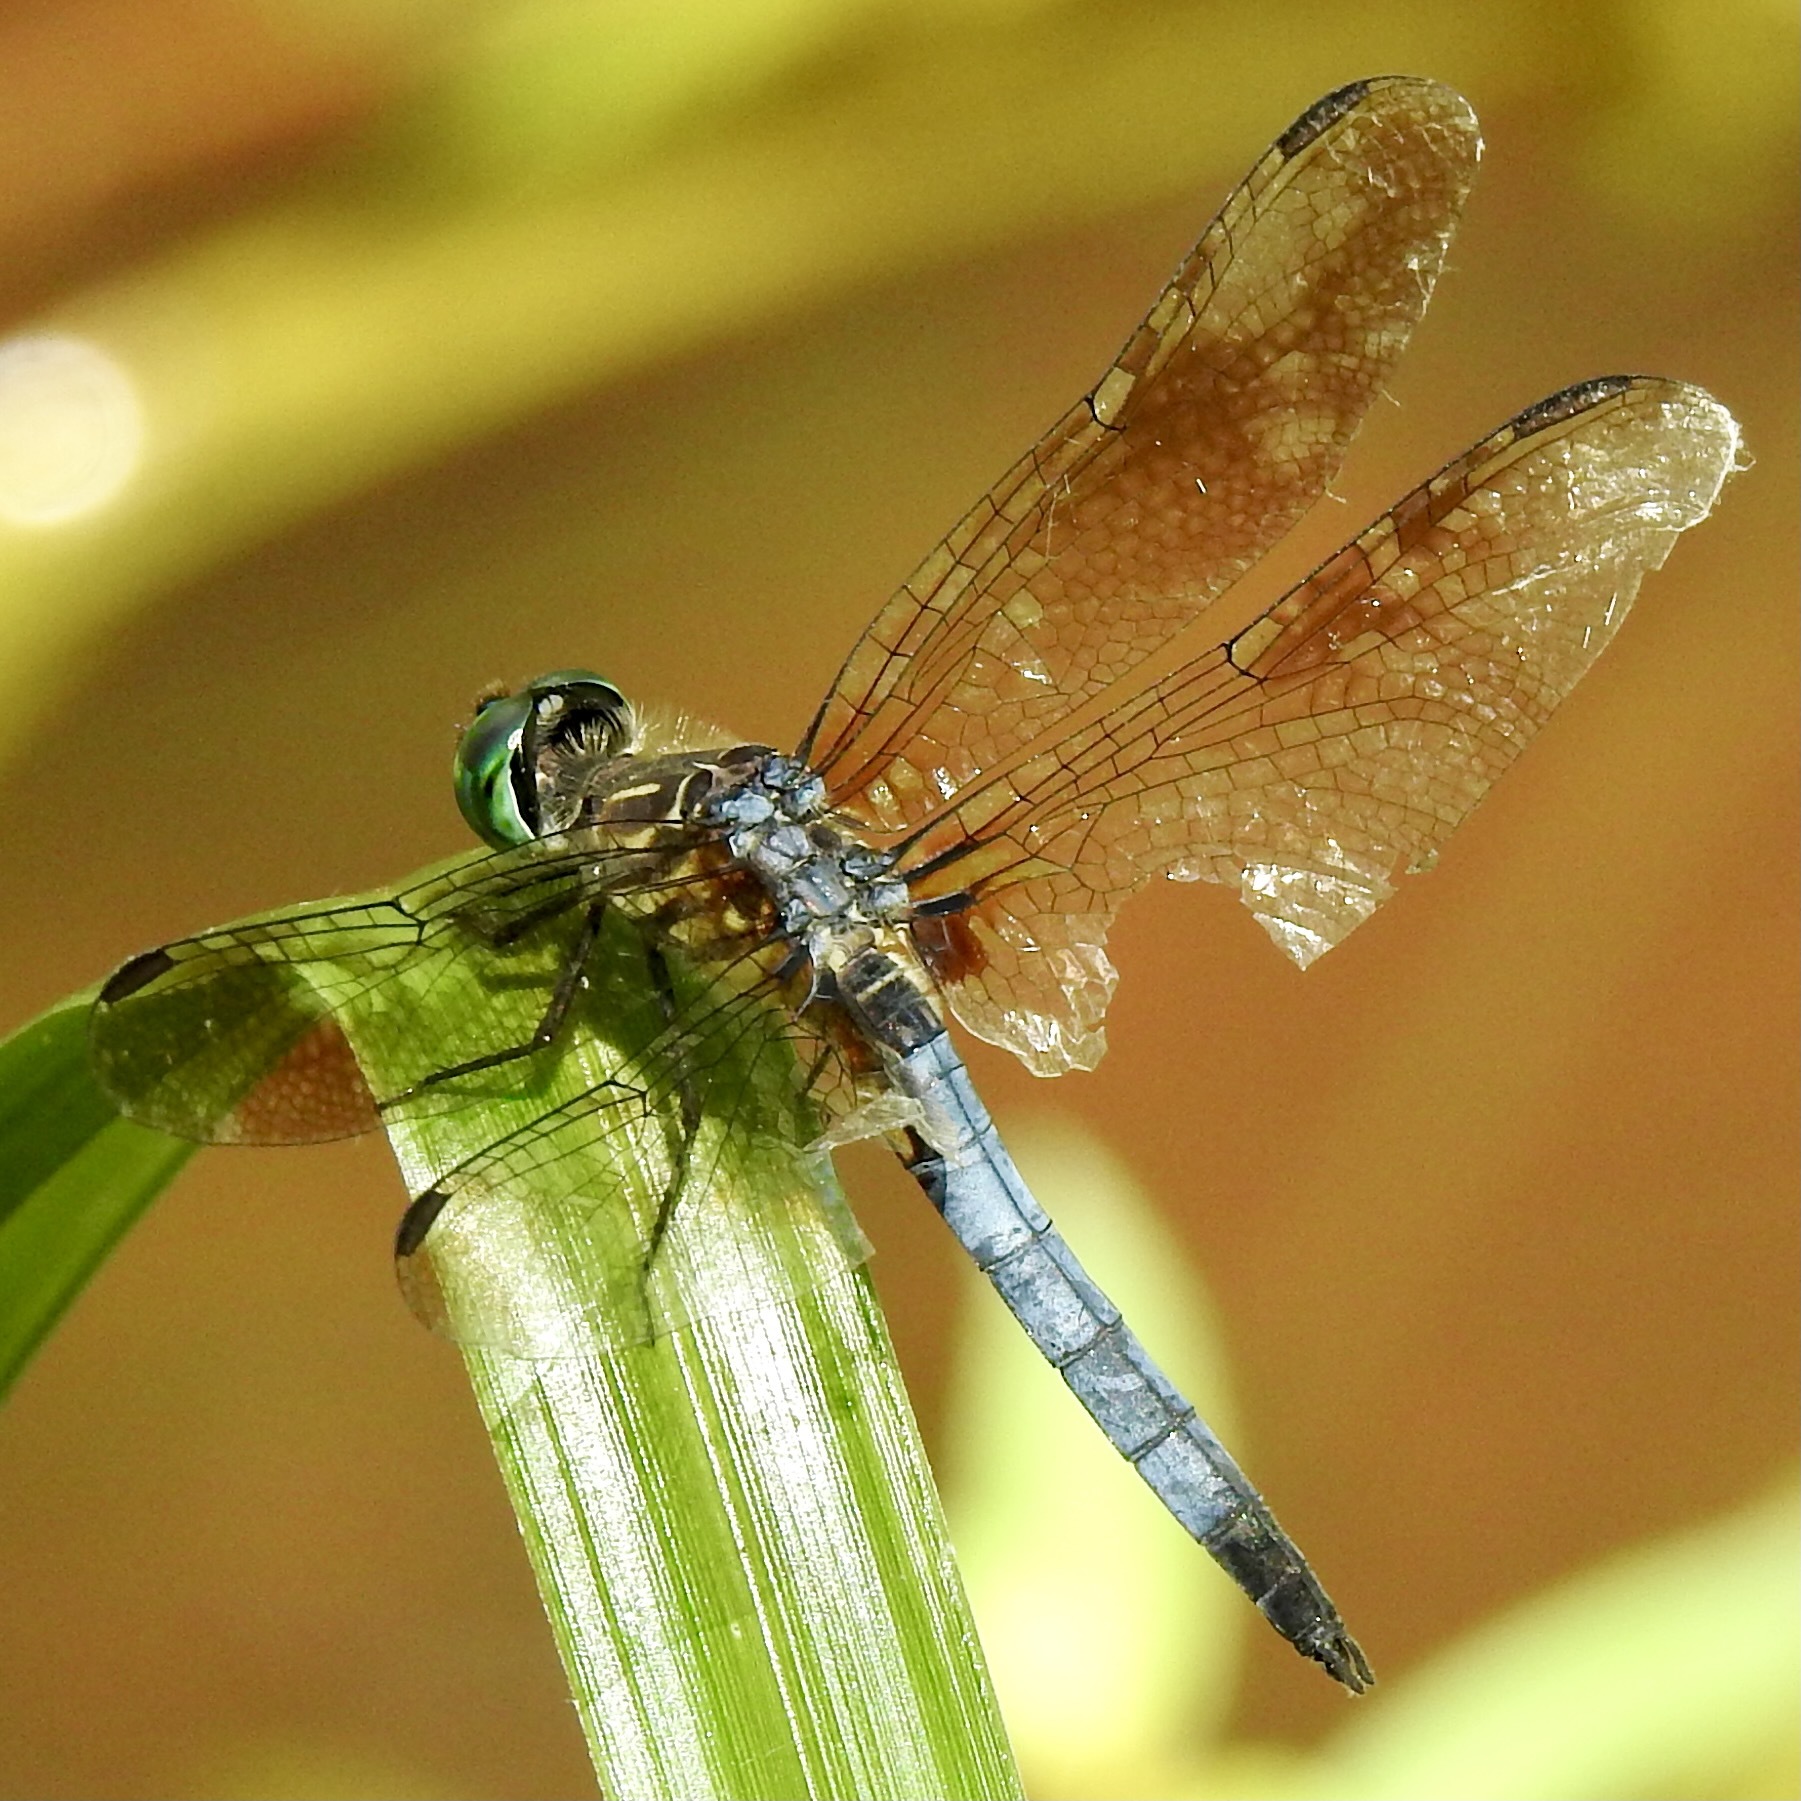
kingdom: Animalia
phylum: Arthropoda
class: Insecta
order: Odonata
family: Libellulidae
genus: Pachydiplax
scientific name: Pachydiplax longipennis
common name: Blue dasher
